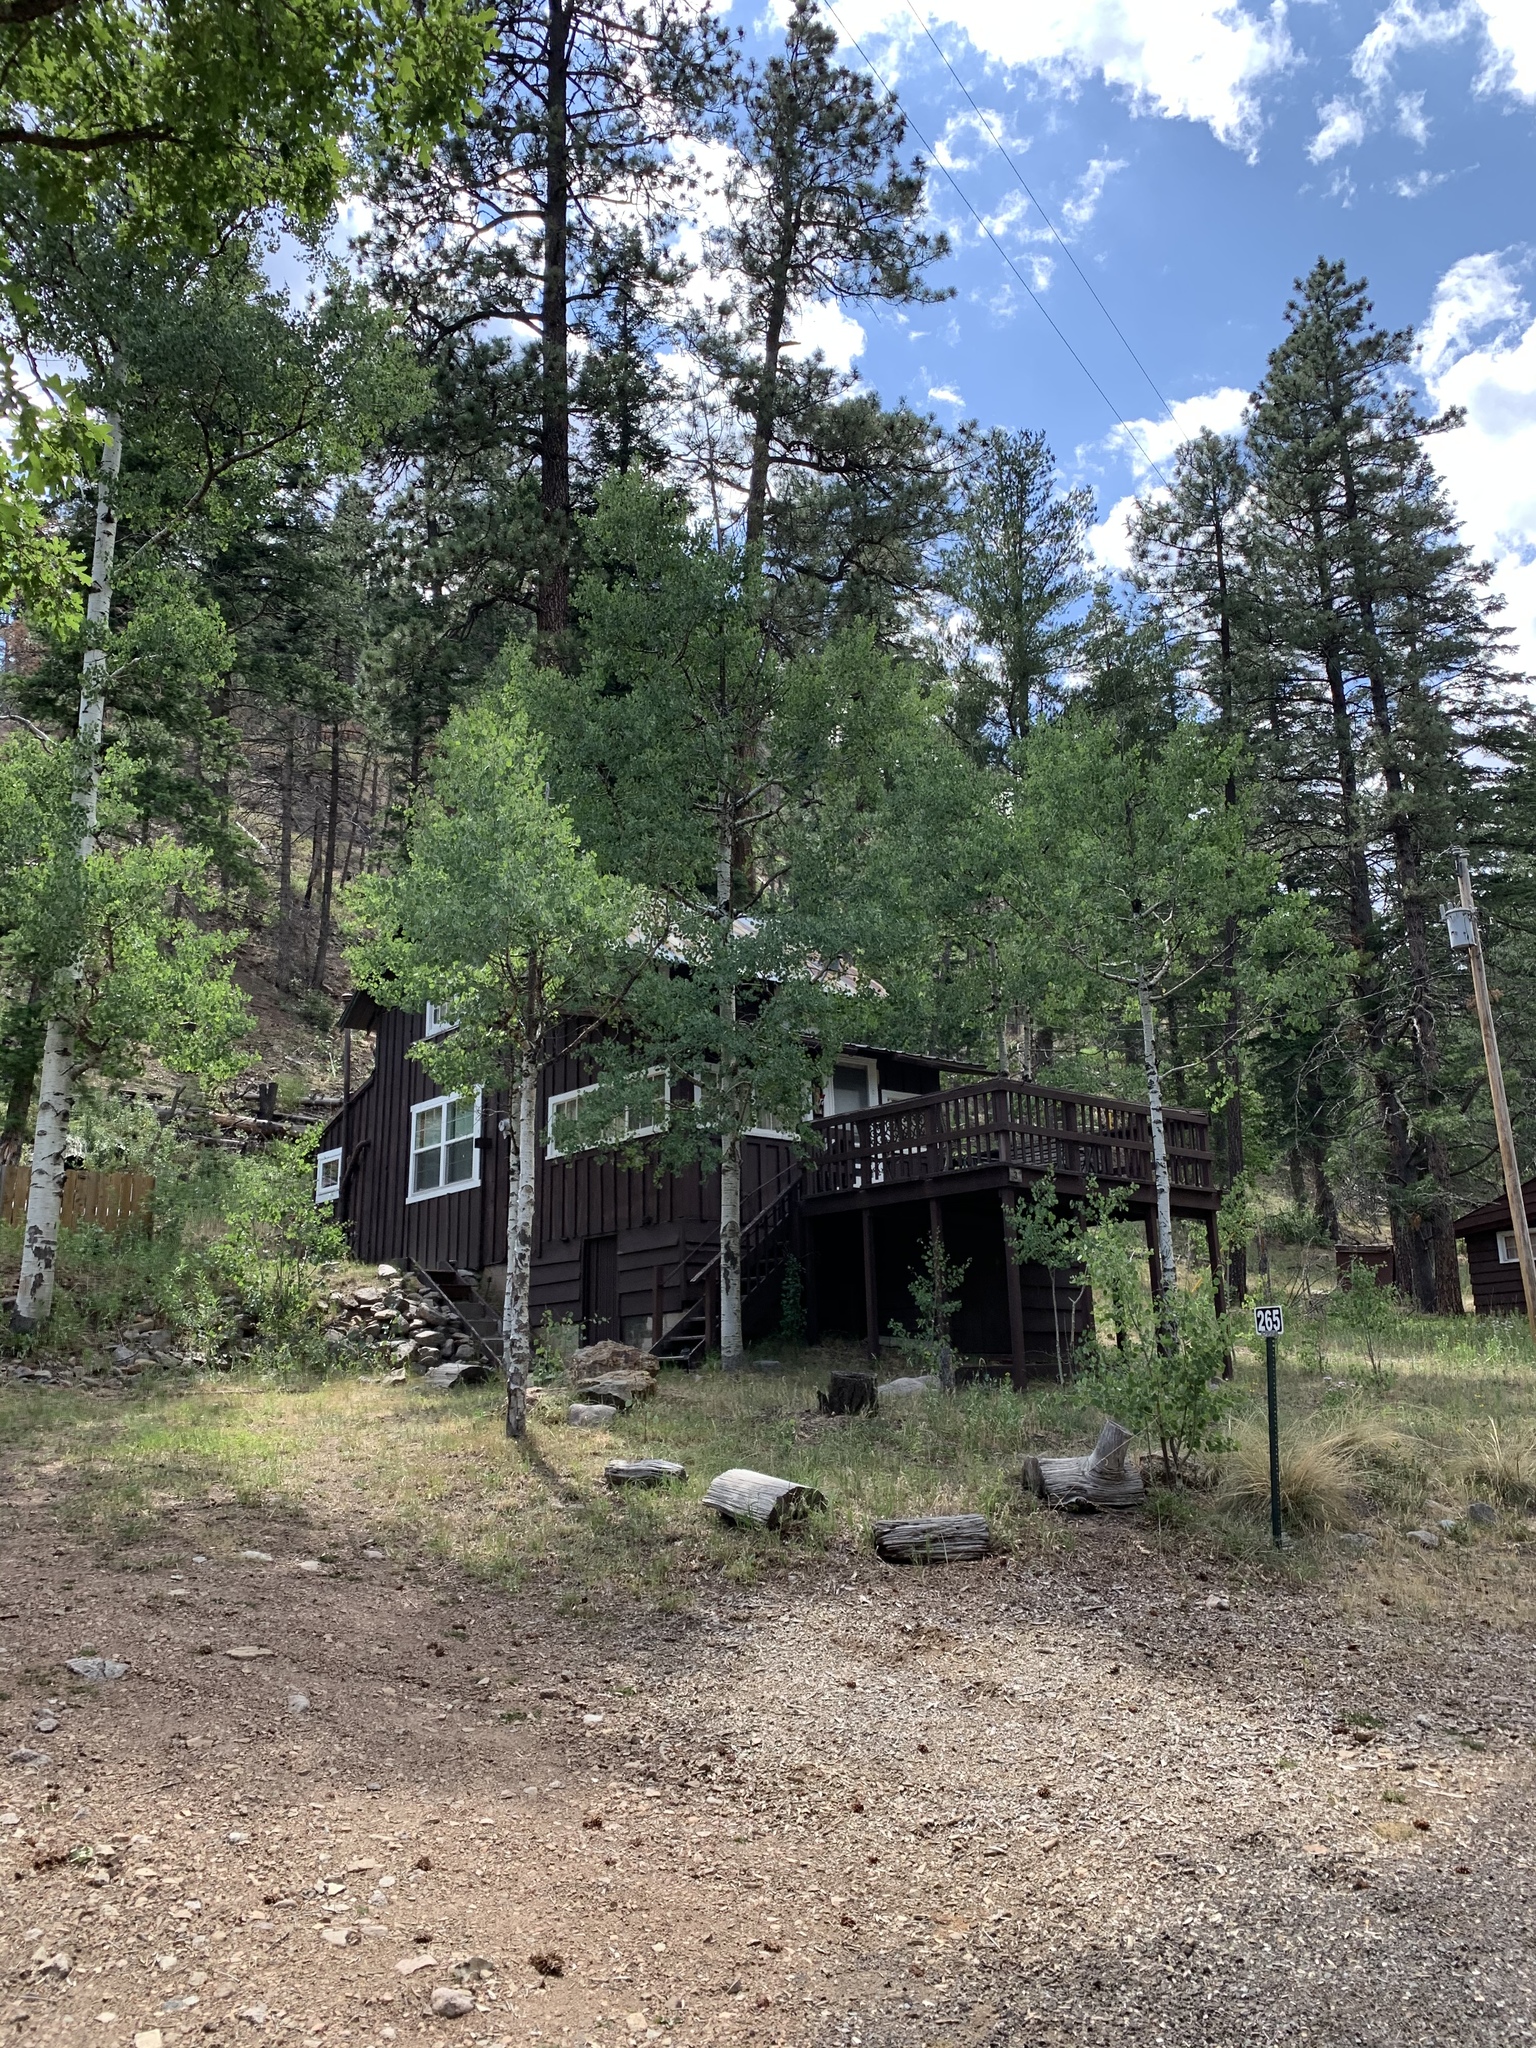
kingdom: Plantae
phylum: Tracheophyta
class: Magnoliopsida
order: Malpighiales
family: Salicaceae
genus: Populus
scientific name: Populus tremuloides
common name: Quaking aspen
